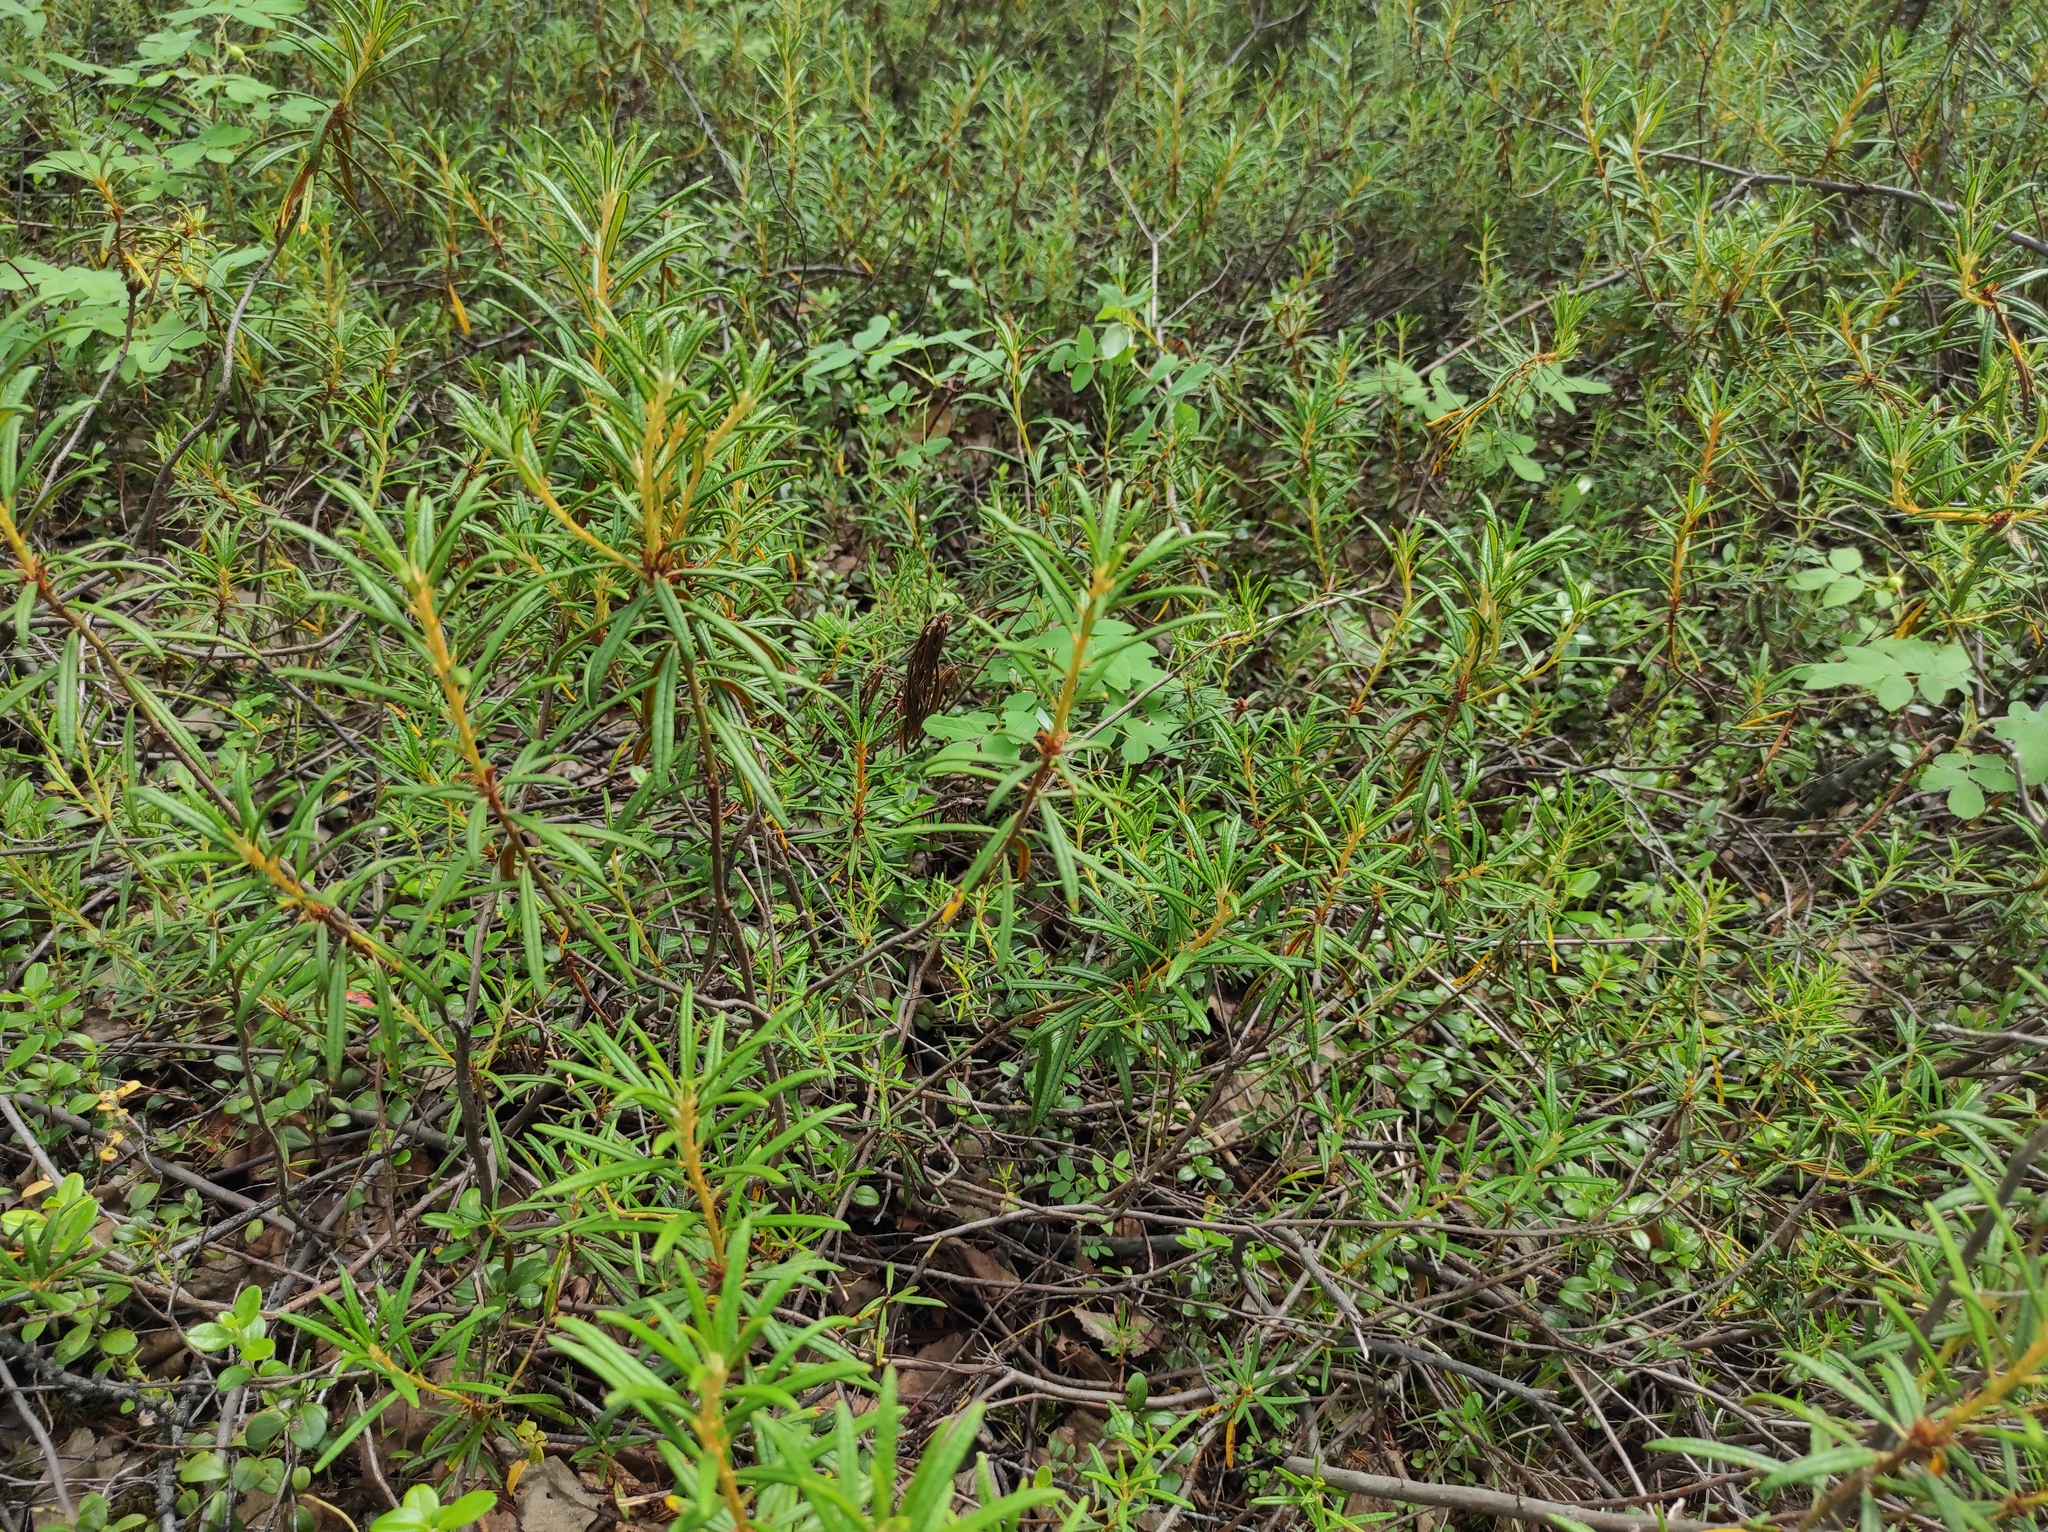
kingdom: Plantae
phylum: Tracheophyta
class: Magnoliopsida
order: Ericales
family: Ericaceae
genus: Rhododendron
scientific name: Rhododendron tomentosum
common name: Marsh labrador tea
